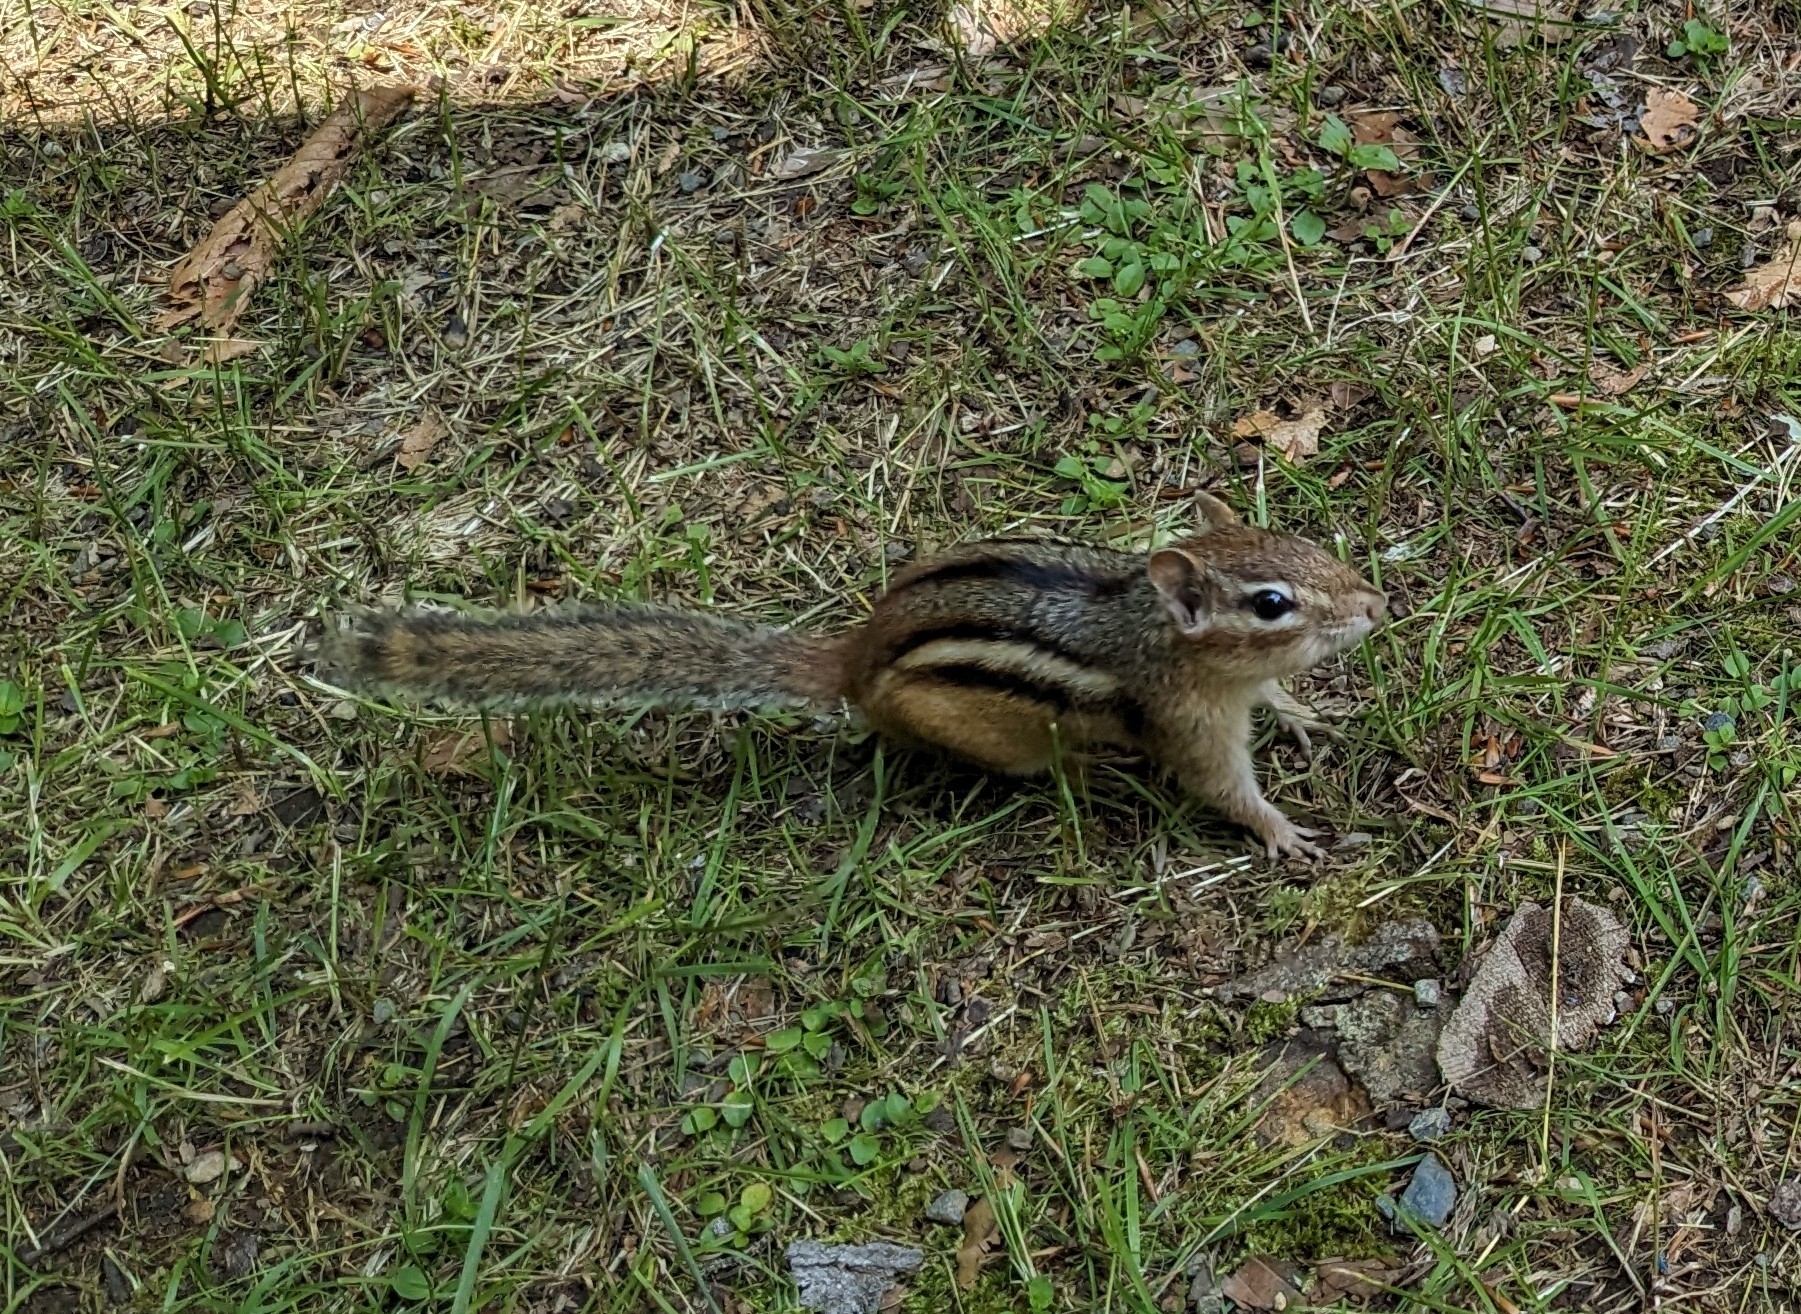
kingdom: Animalia
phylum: Chordata
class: Mammalia
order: Rodentia
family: Sciuridae
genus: Tamias
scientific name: Tamias striatus
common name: Eastern chipmunk
